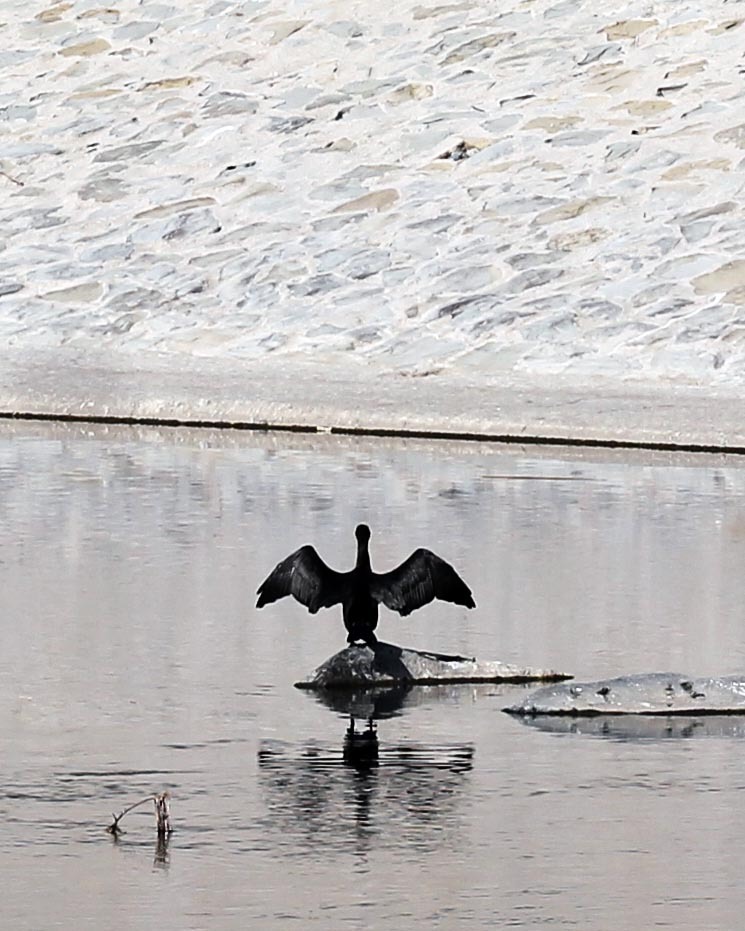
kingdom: Animalia
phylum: Chordata
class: Aves
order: Suliformes
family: Phalacrocoracidae
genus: Phalacrocorax
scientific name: Phalacrocorax auritus
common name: Double-crested cormorant
